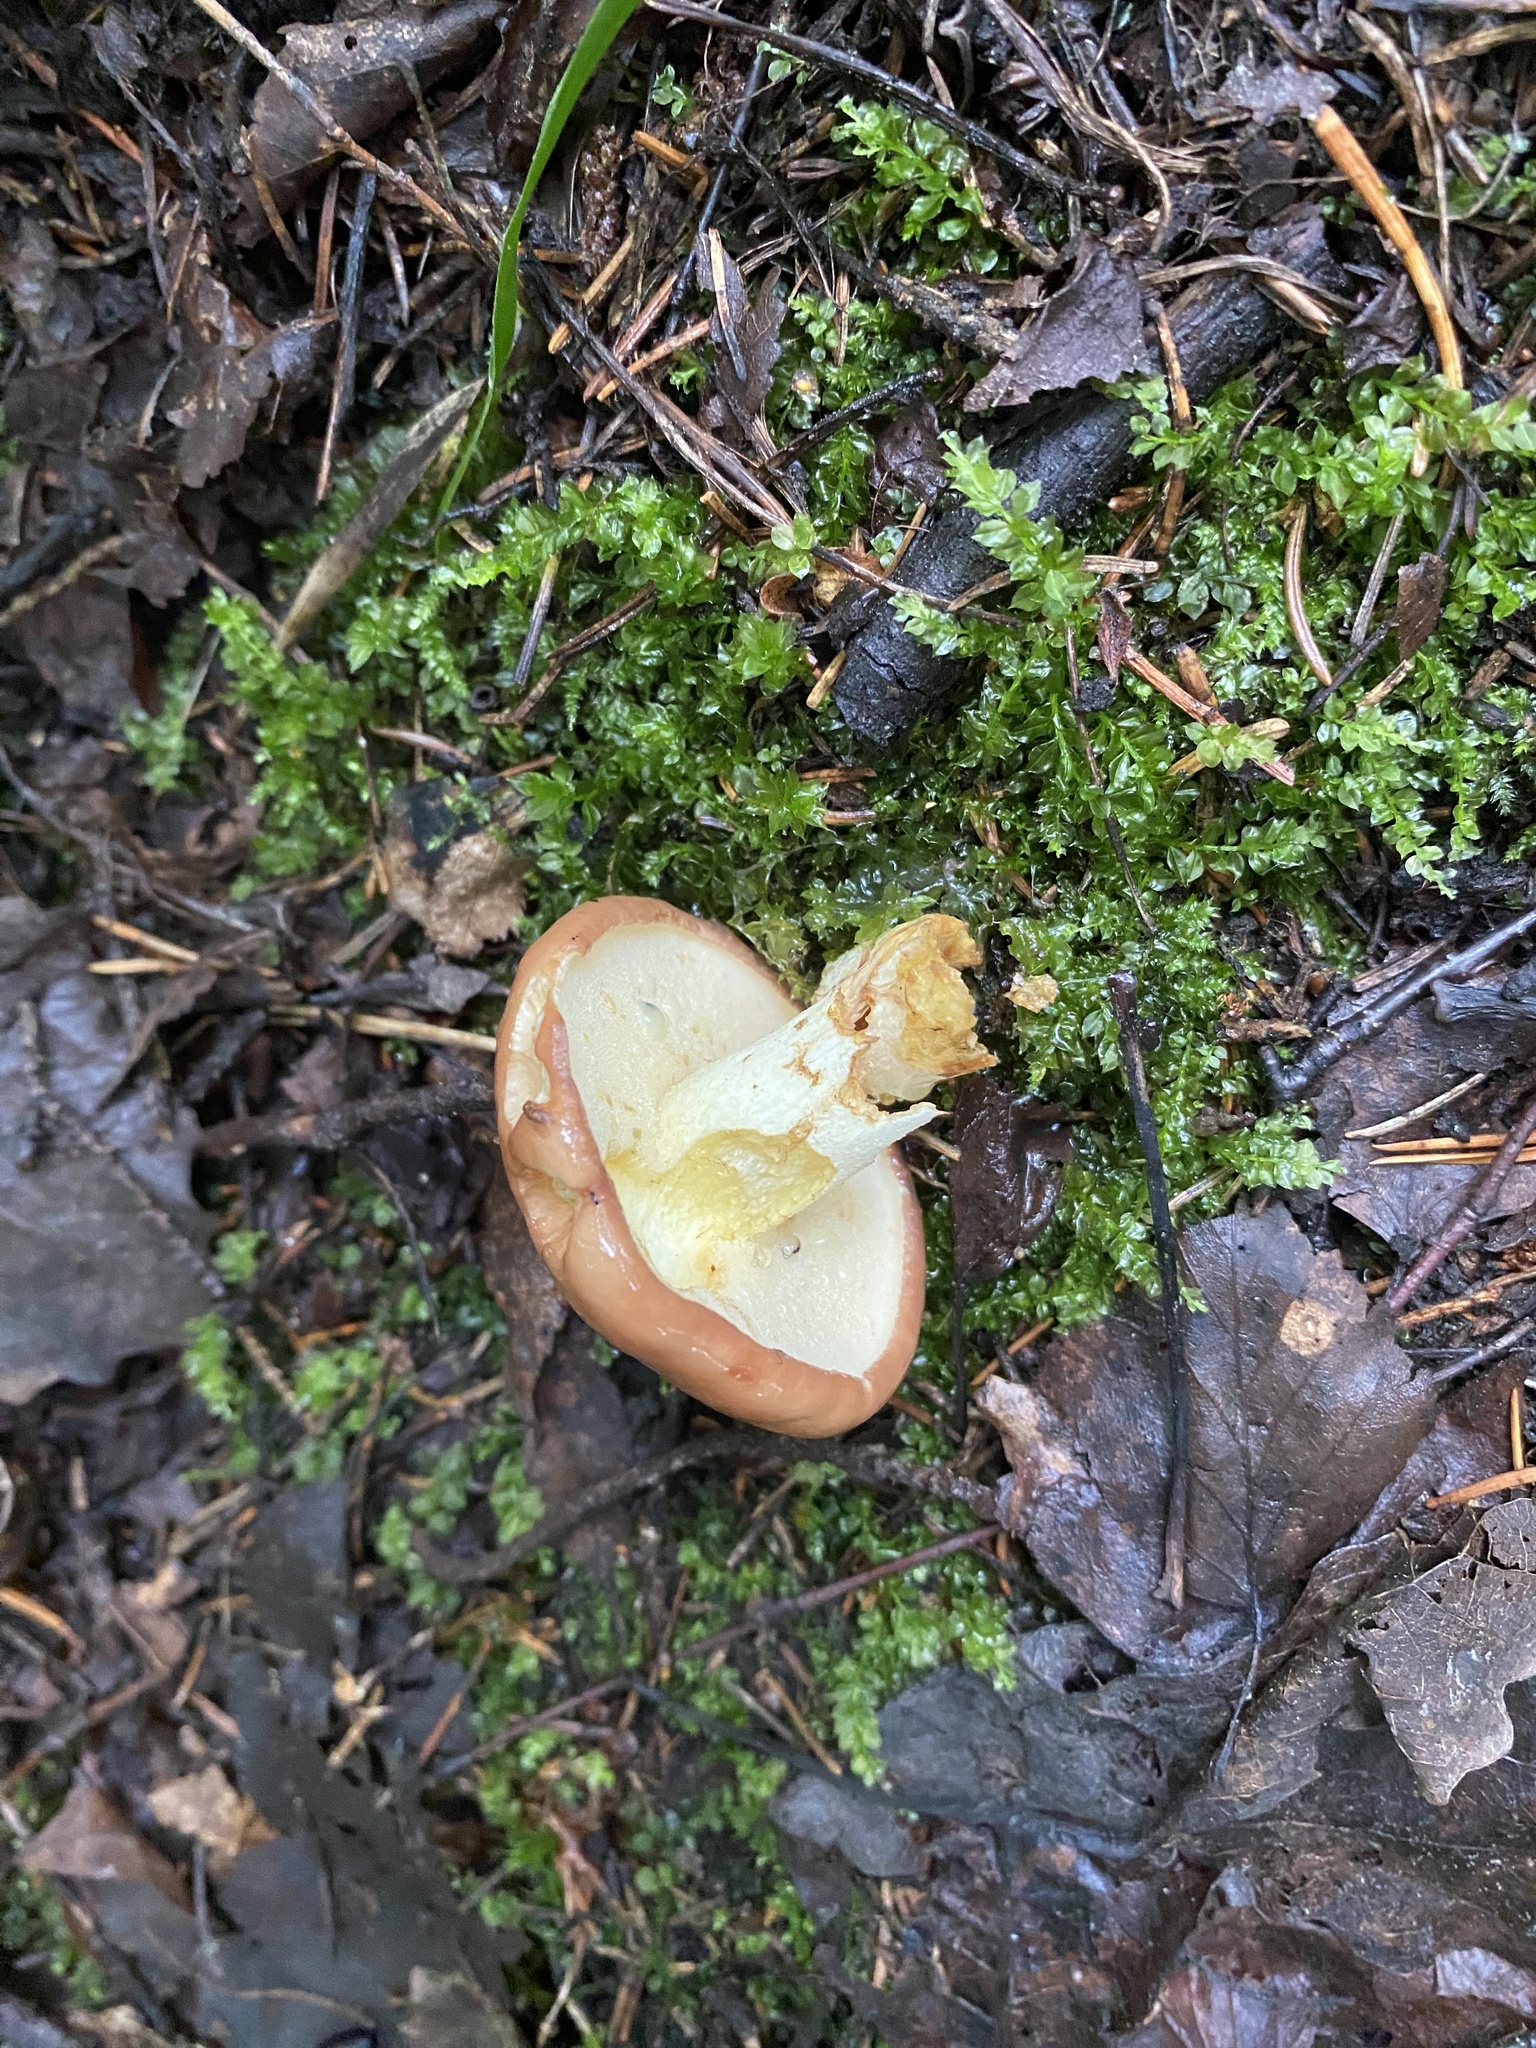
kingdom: Fungi
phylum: Basidiomycota
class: Agaricomycetes
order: Boletales
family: Suillaceae
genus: Suillus
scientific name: Suillus granulatus
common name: Weeping bolete
